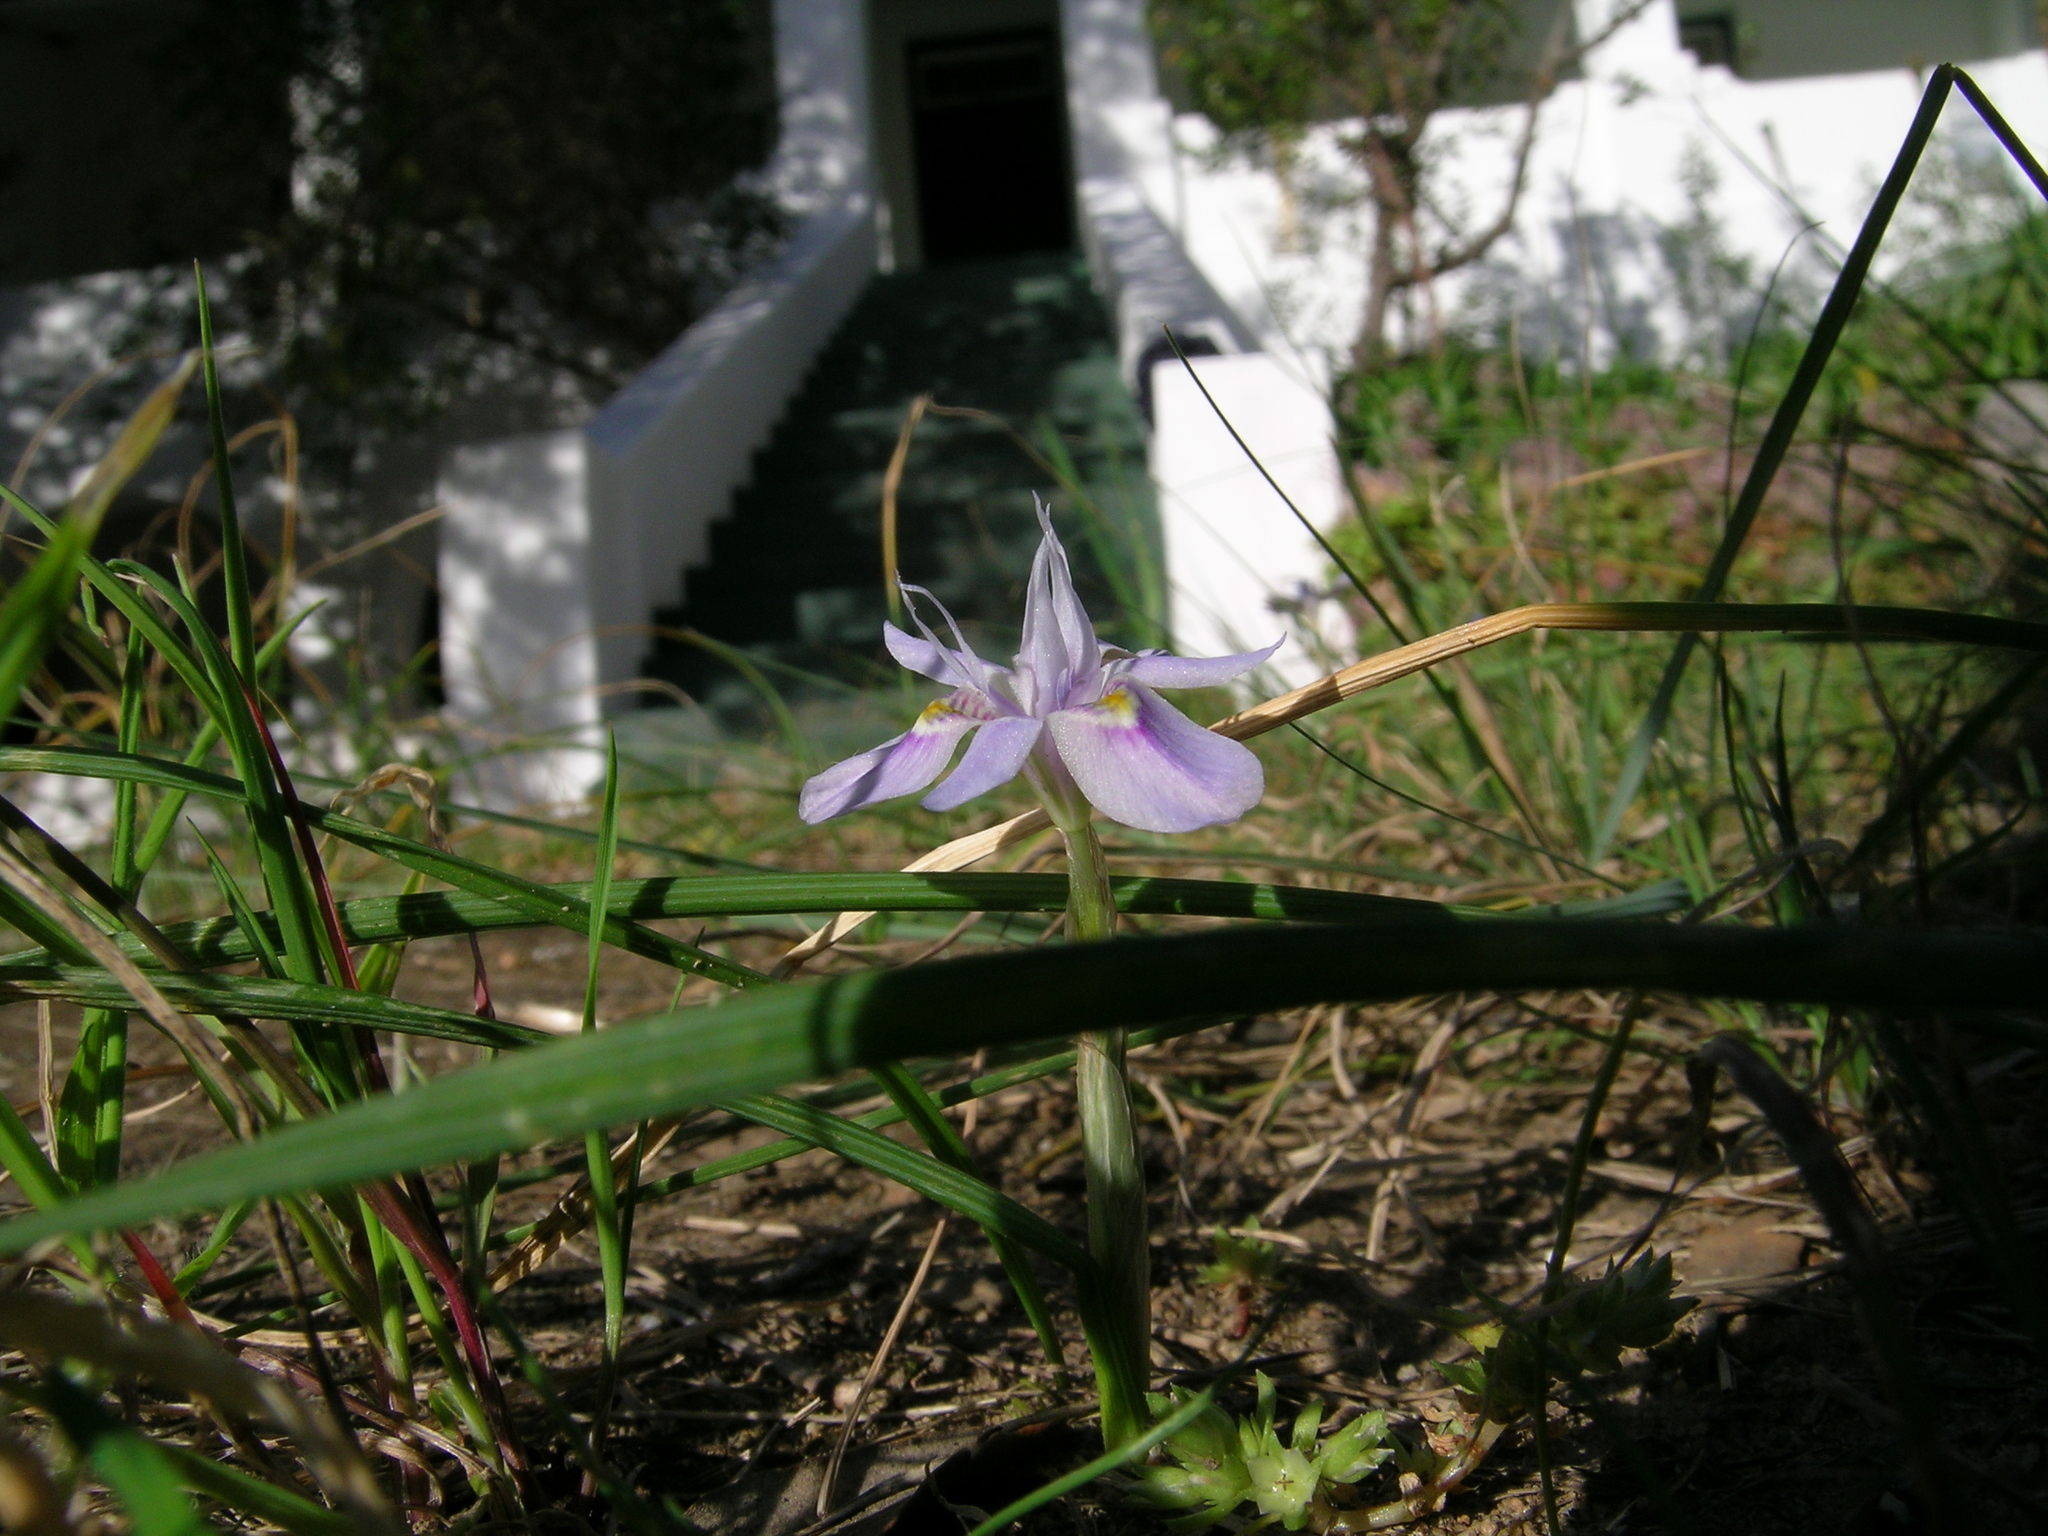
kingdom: Plantae
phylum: Tracheophyta
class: Liliopsida
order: Asparagales
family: Iridaceae
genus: Moraea
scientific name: Moraea setifolia
